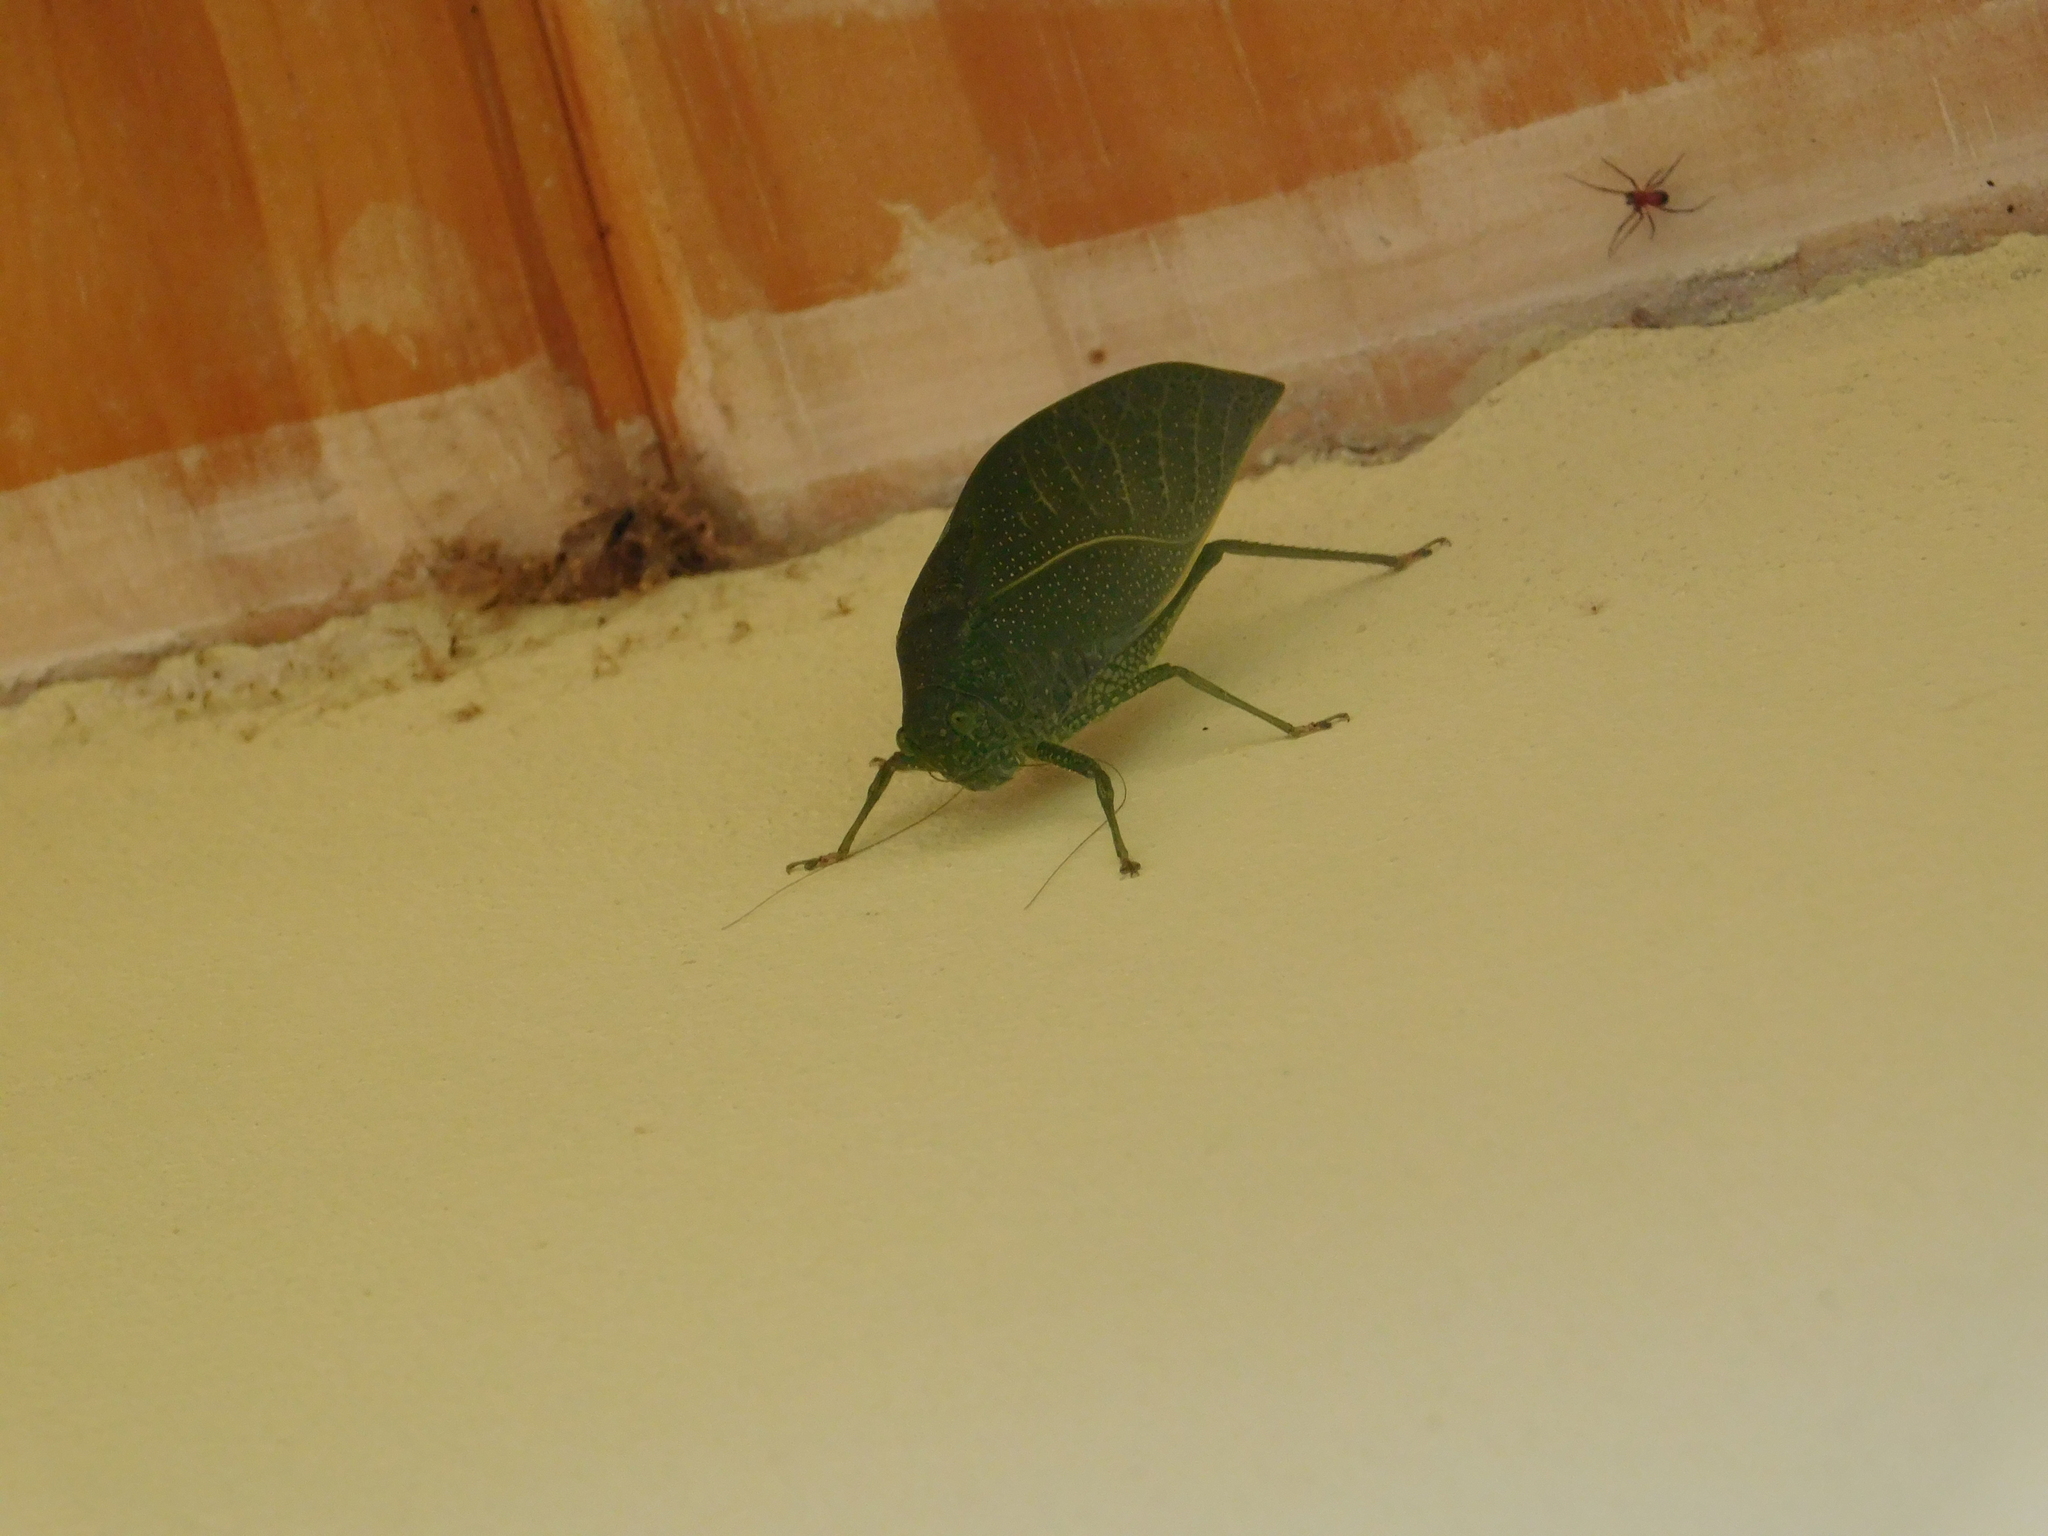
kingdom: Animalia
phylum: Arthropoda
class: Insecta
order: Orthoptera
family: Tettigoniidae
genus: Anapolisia
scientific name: Anapolisia micromargaritifera
